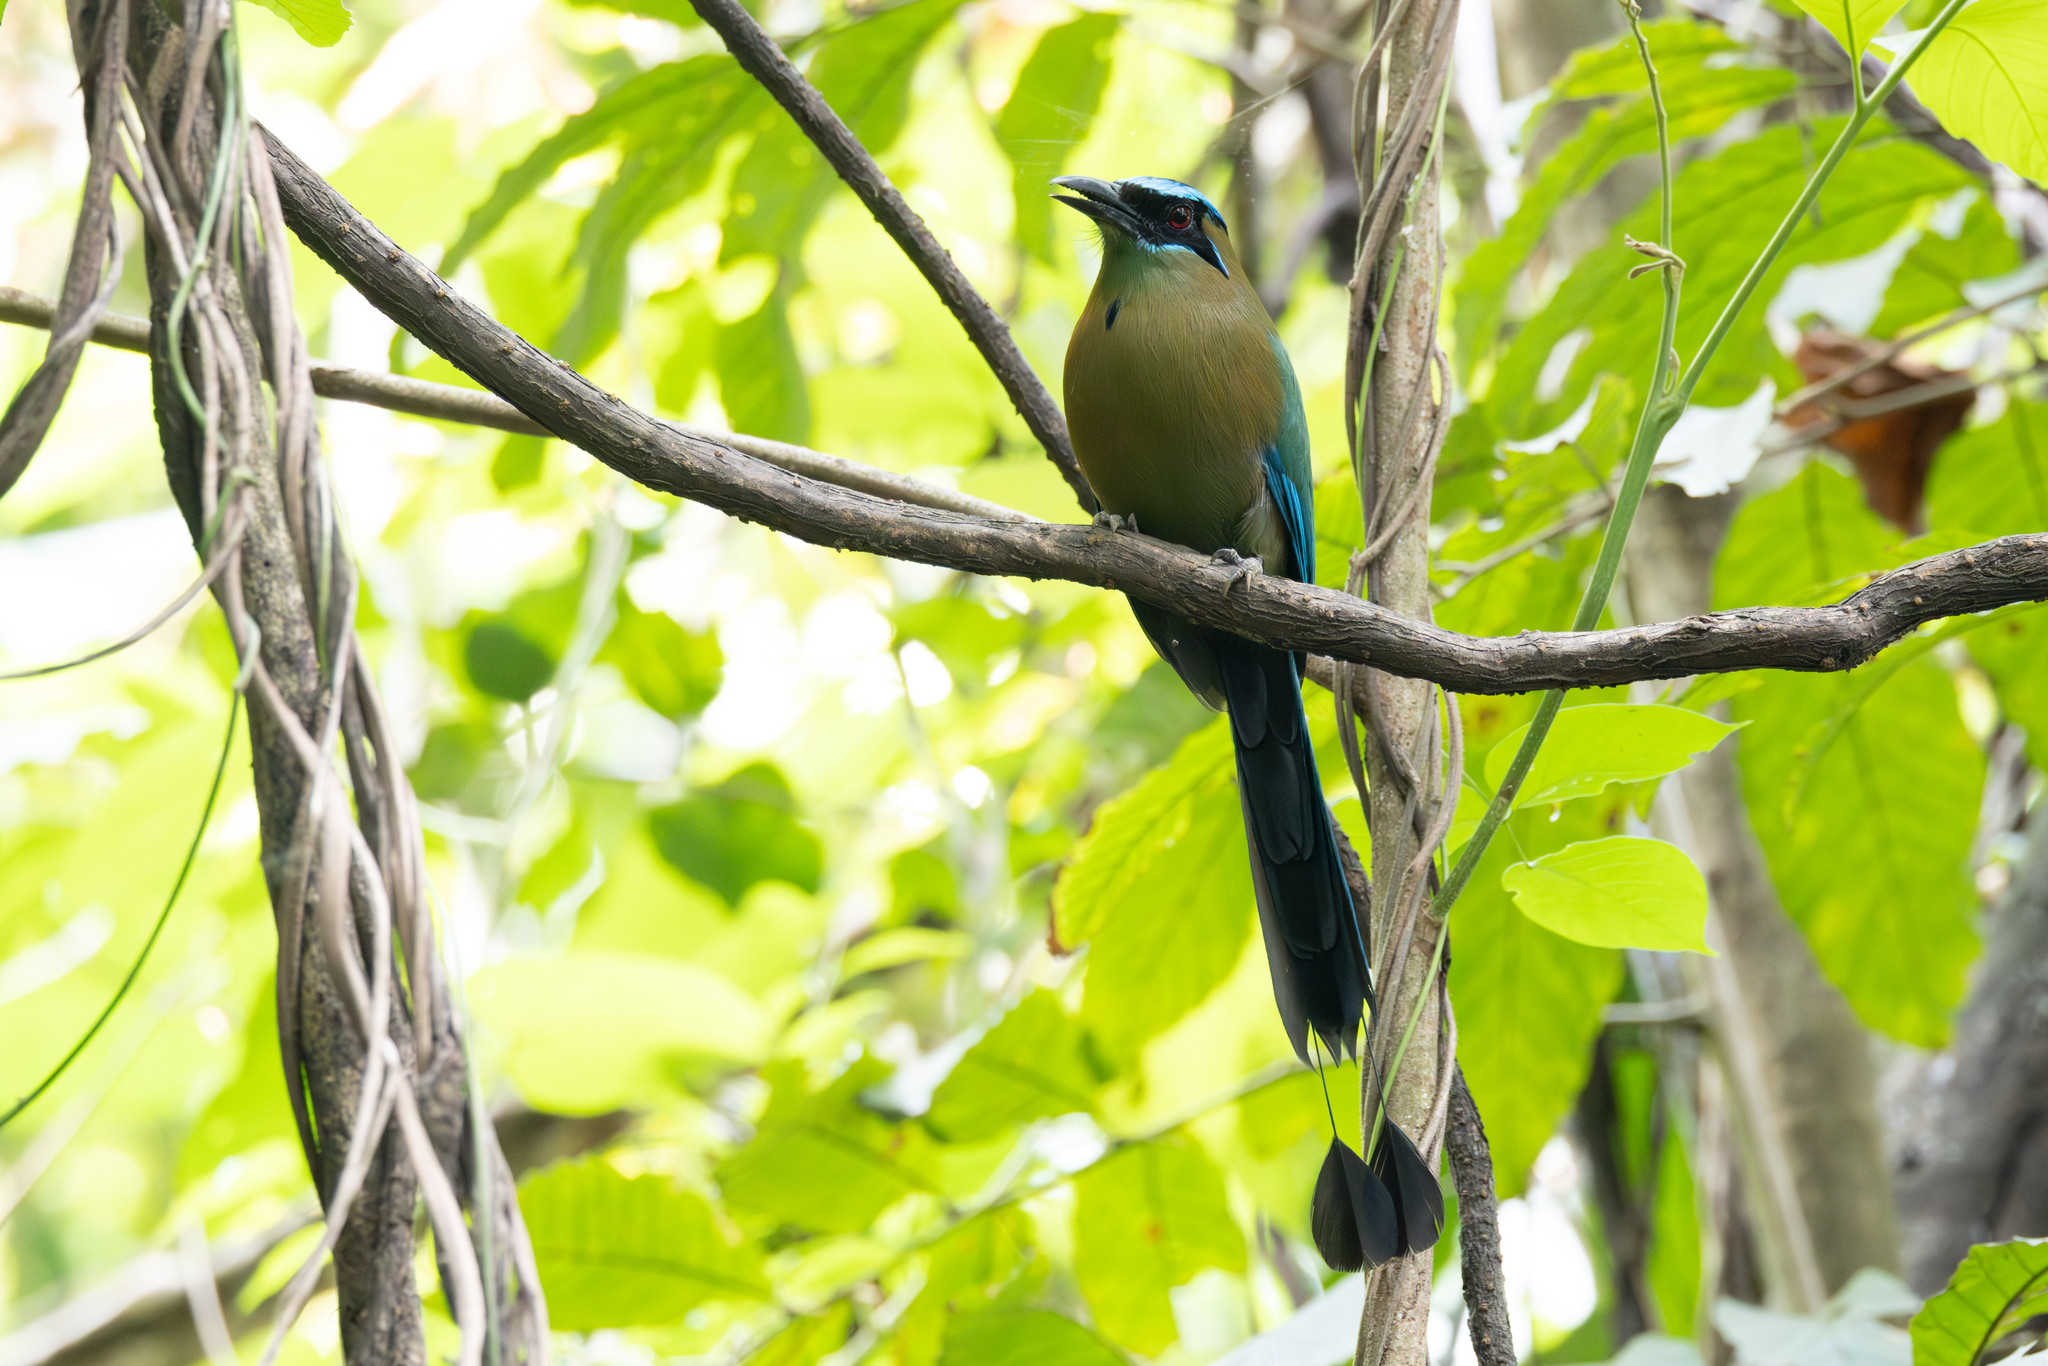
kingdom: Animalia
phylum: Chordata
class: Aves
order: Coraciiformes
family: Momotidae
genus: Momotus
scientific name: Momotus lessonii
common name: Lesson's motmot
